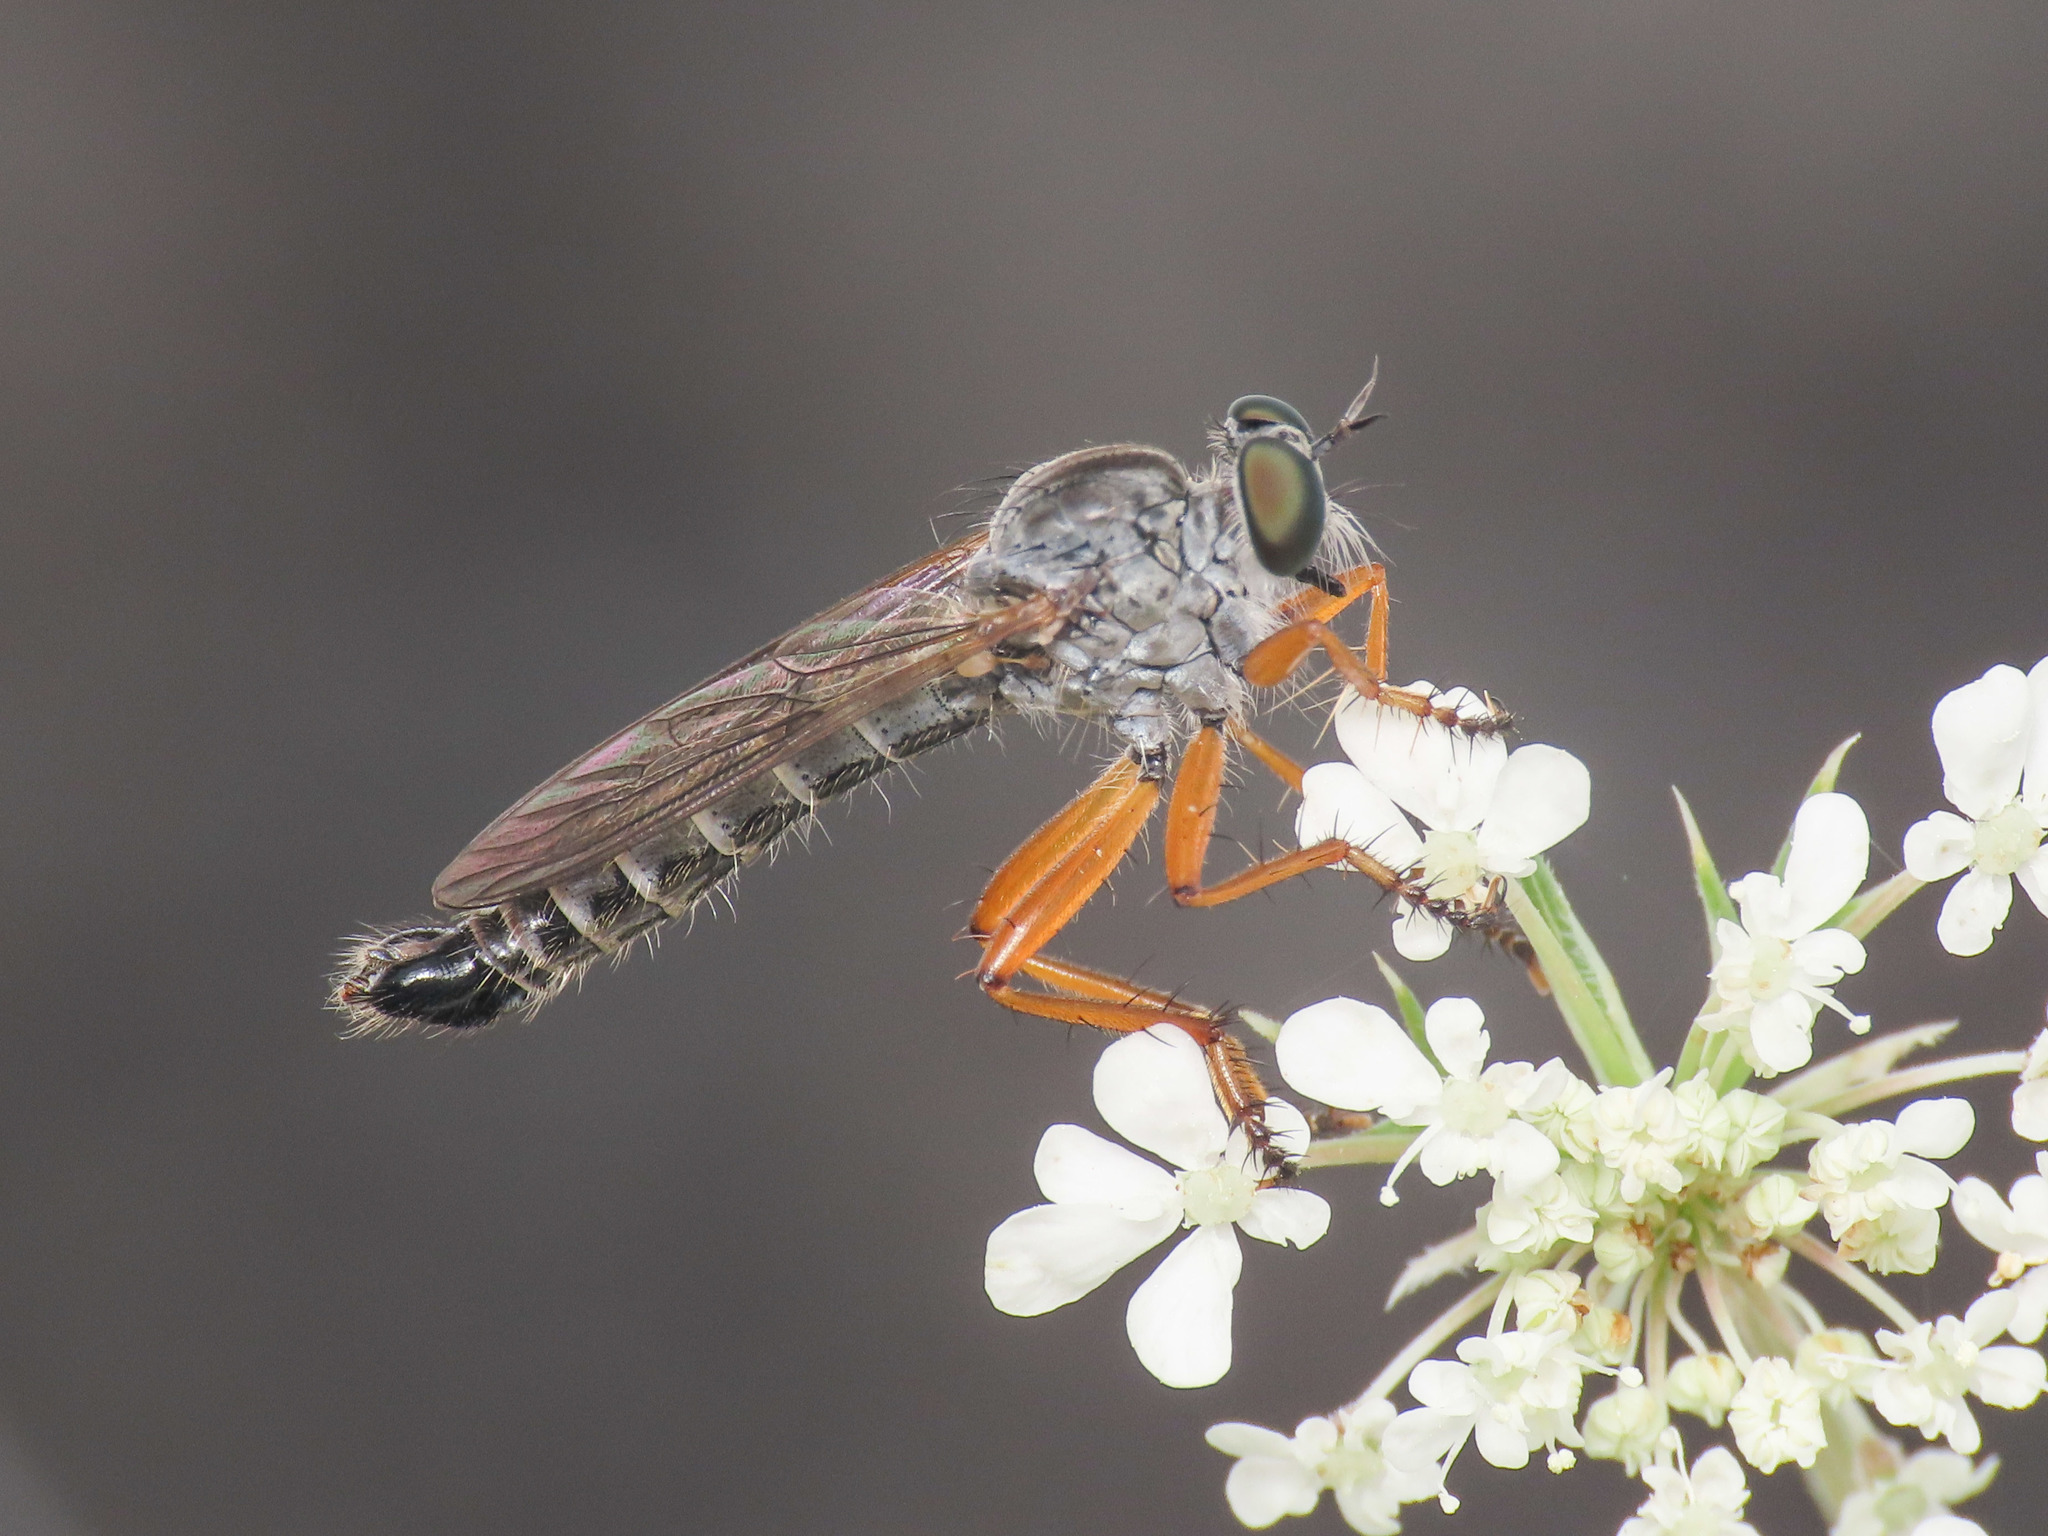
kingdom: Animalia
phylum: Arthropoda
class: Insecta
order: Diptera
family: Asilidae
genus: Neomochtherus
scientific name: Neomochtherus schineri
